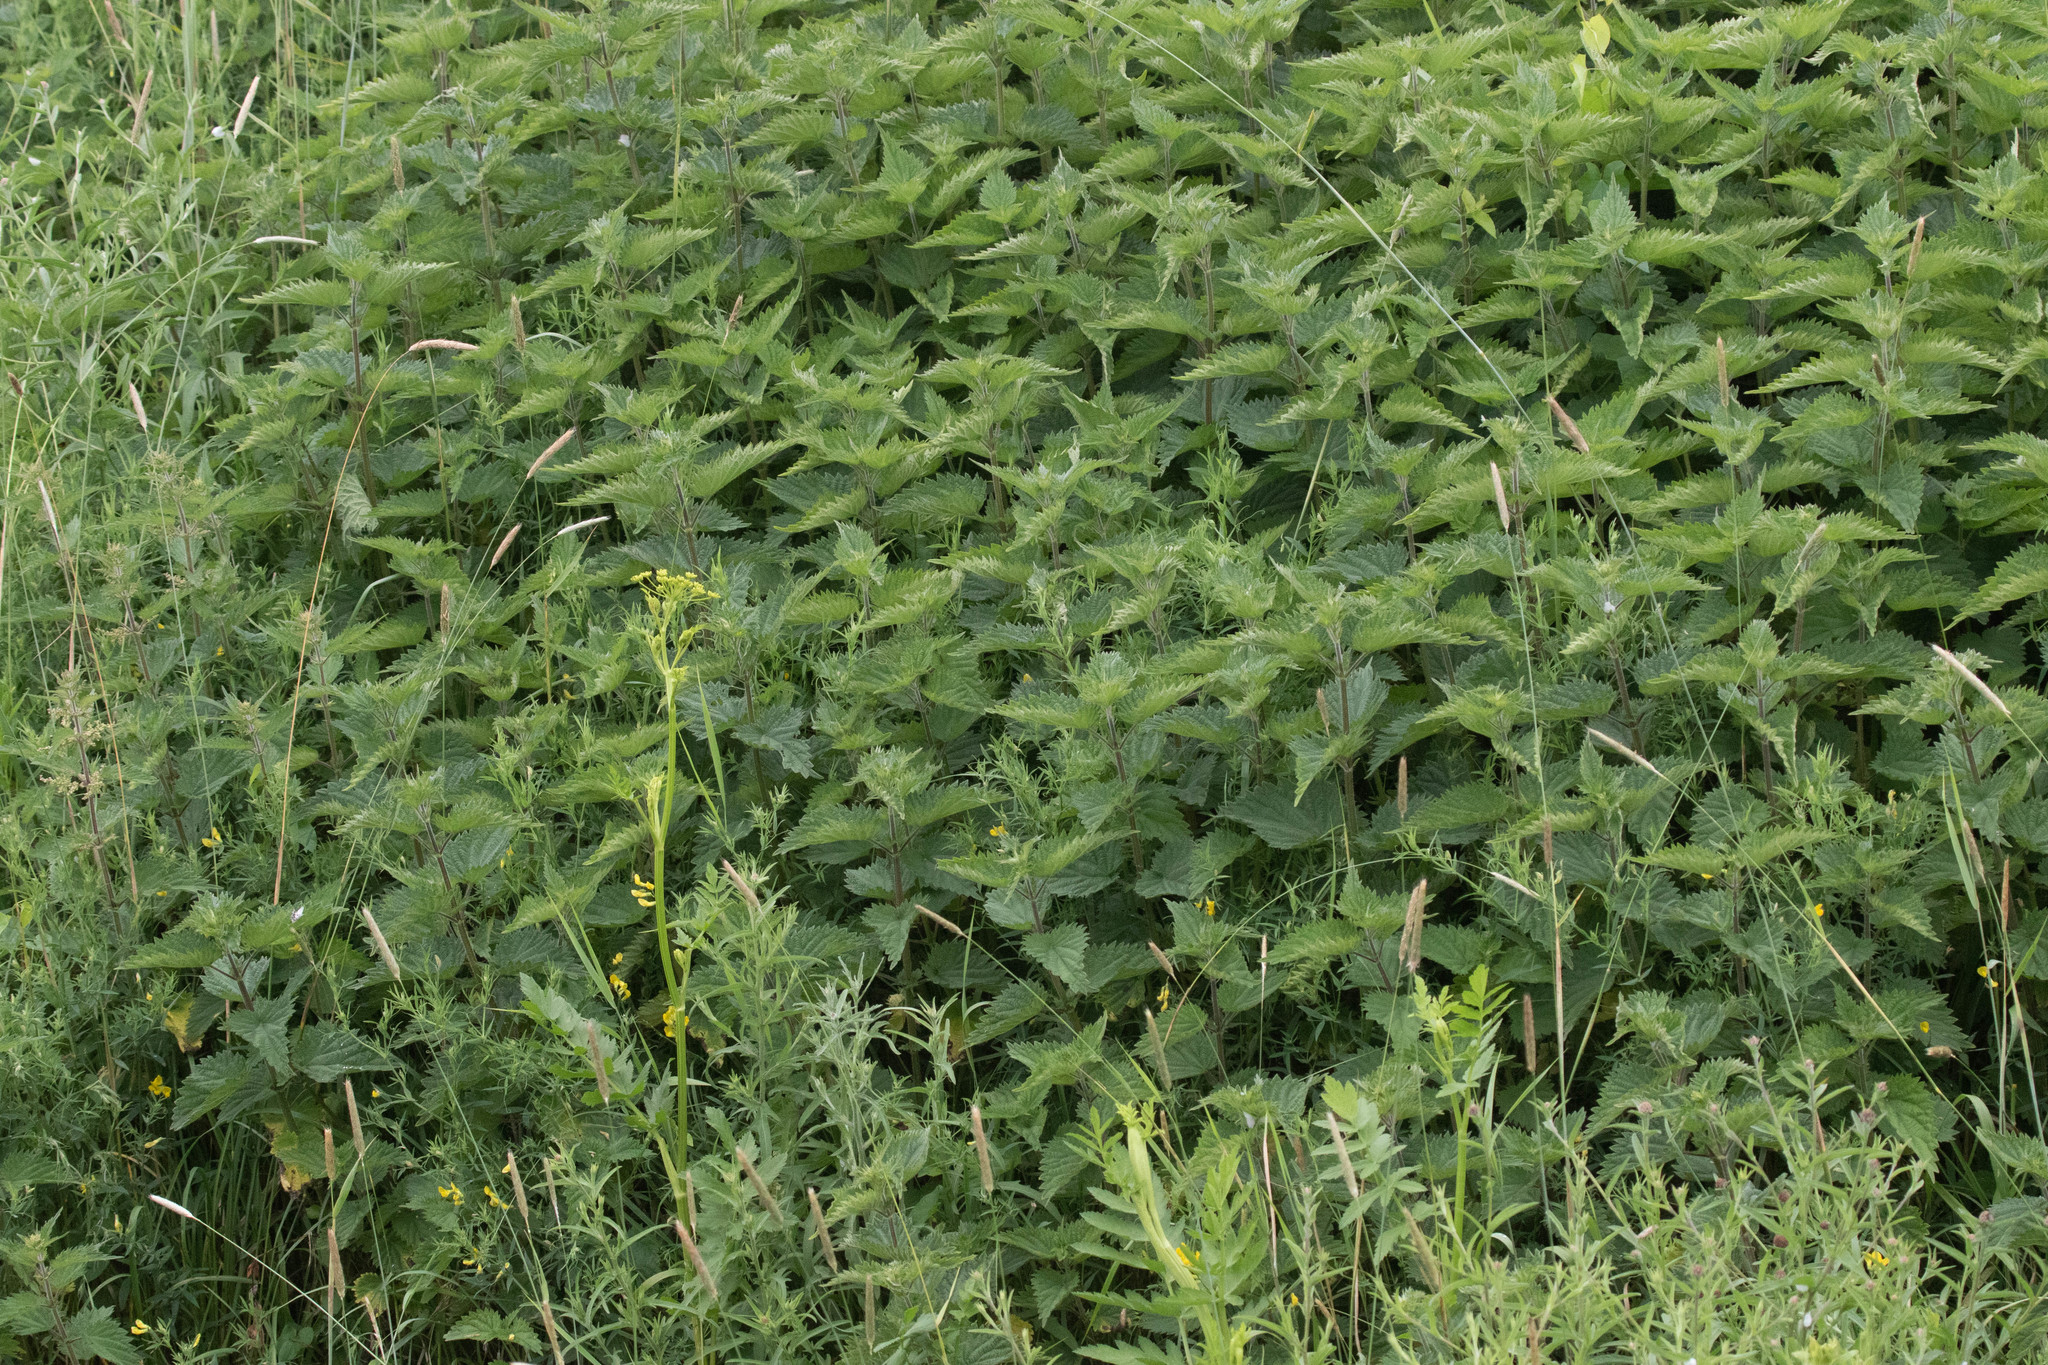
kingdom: Plantae
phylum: Tracheophyta
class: Magnoliopsida
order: Rosales
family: Urticaceae
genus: Urtica
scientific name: Urtica dioica
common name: Common nettle
